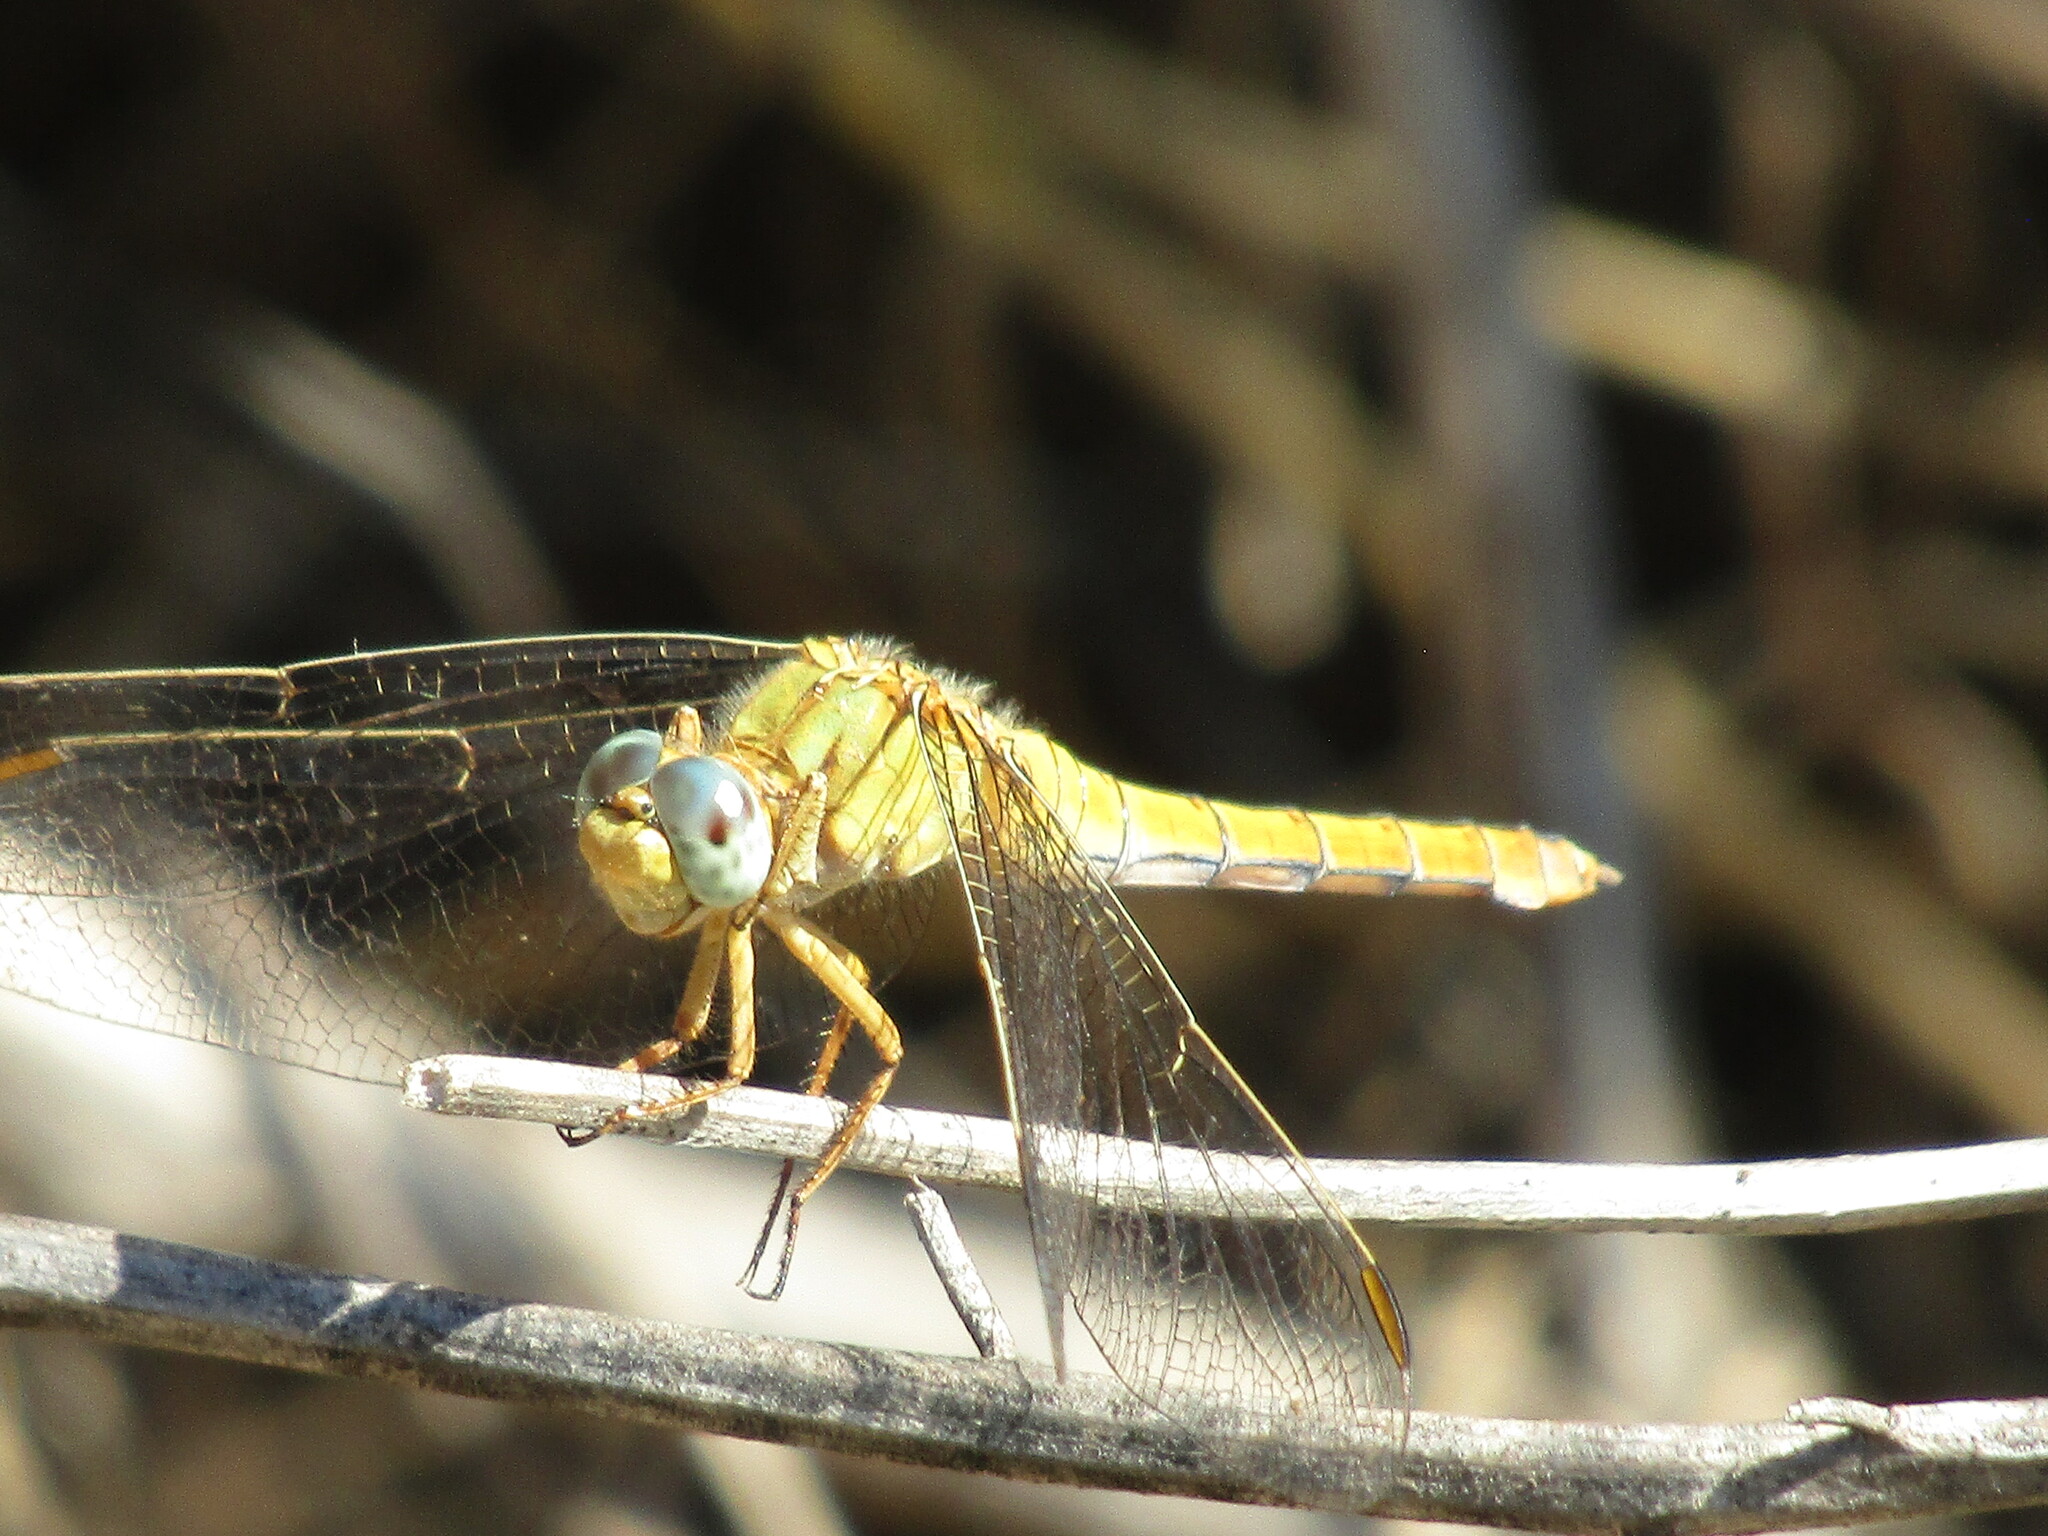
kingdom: Animalia
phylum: Arthropoda
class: Insecta
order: Odonata
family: Libellulidae
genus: Orthetrum
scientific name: Orthetrum coerulescens
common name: Keeled skimmer
